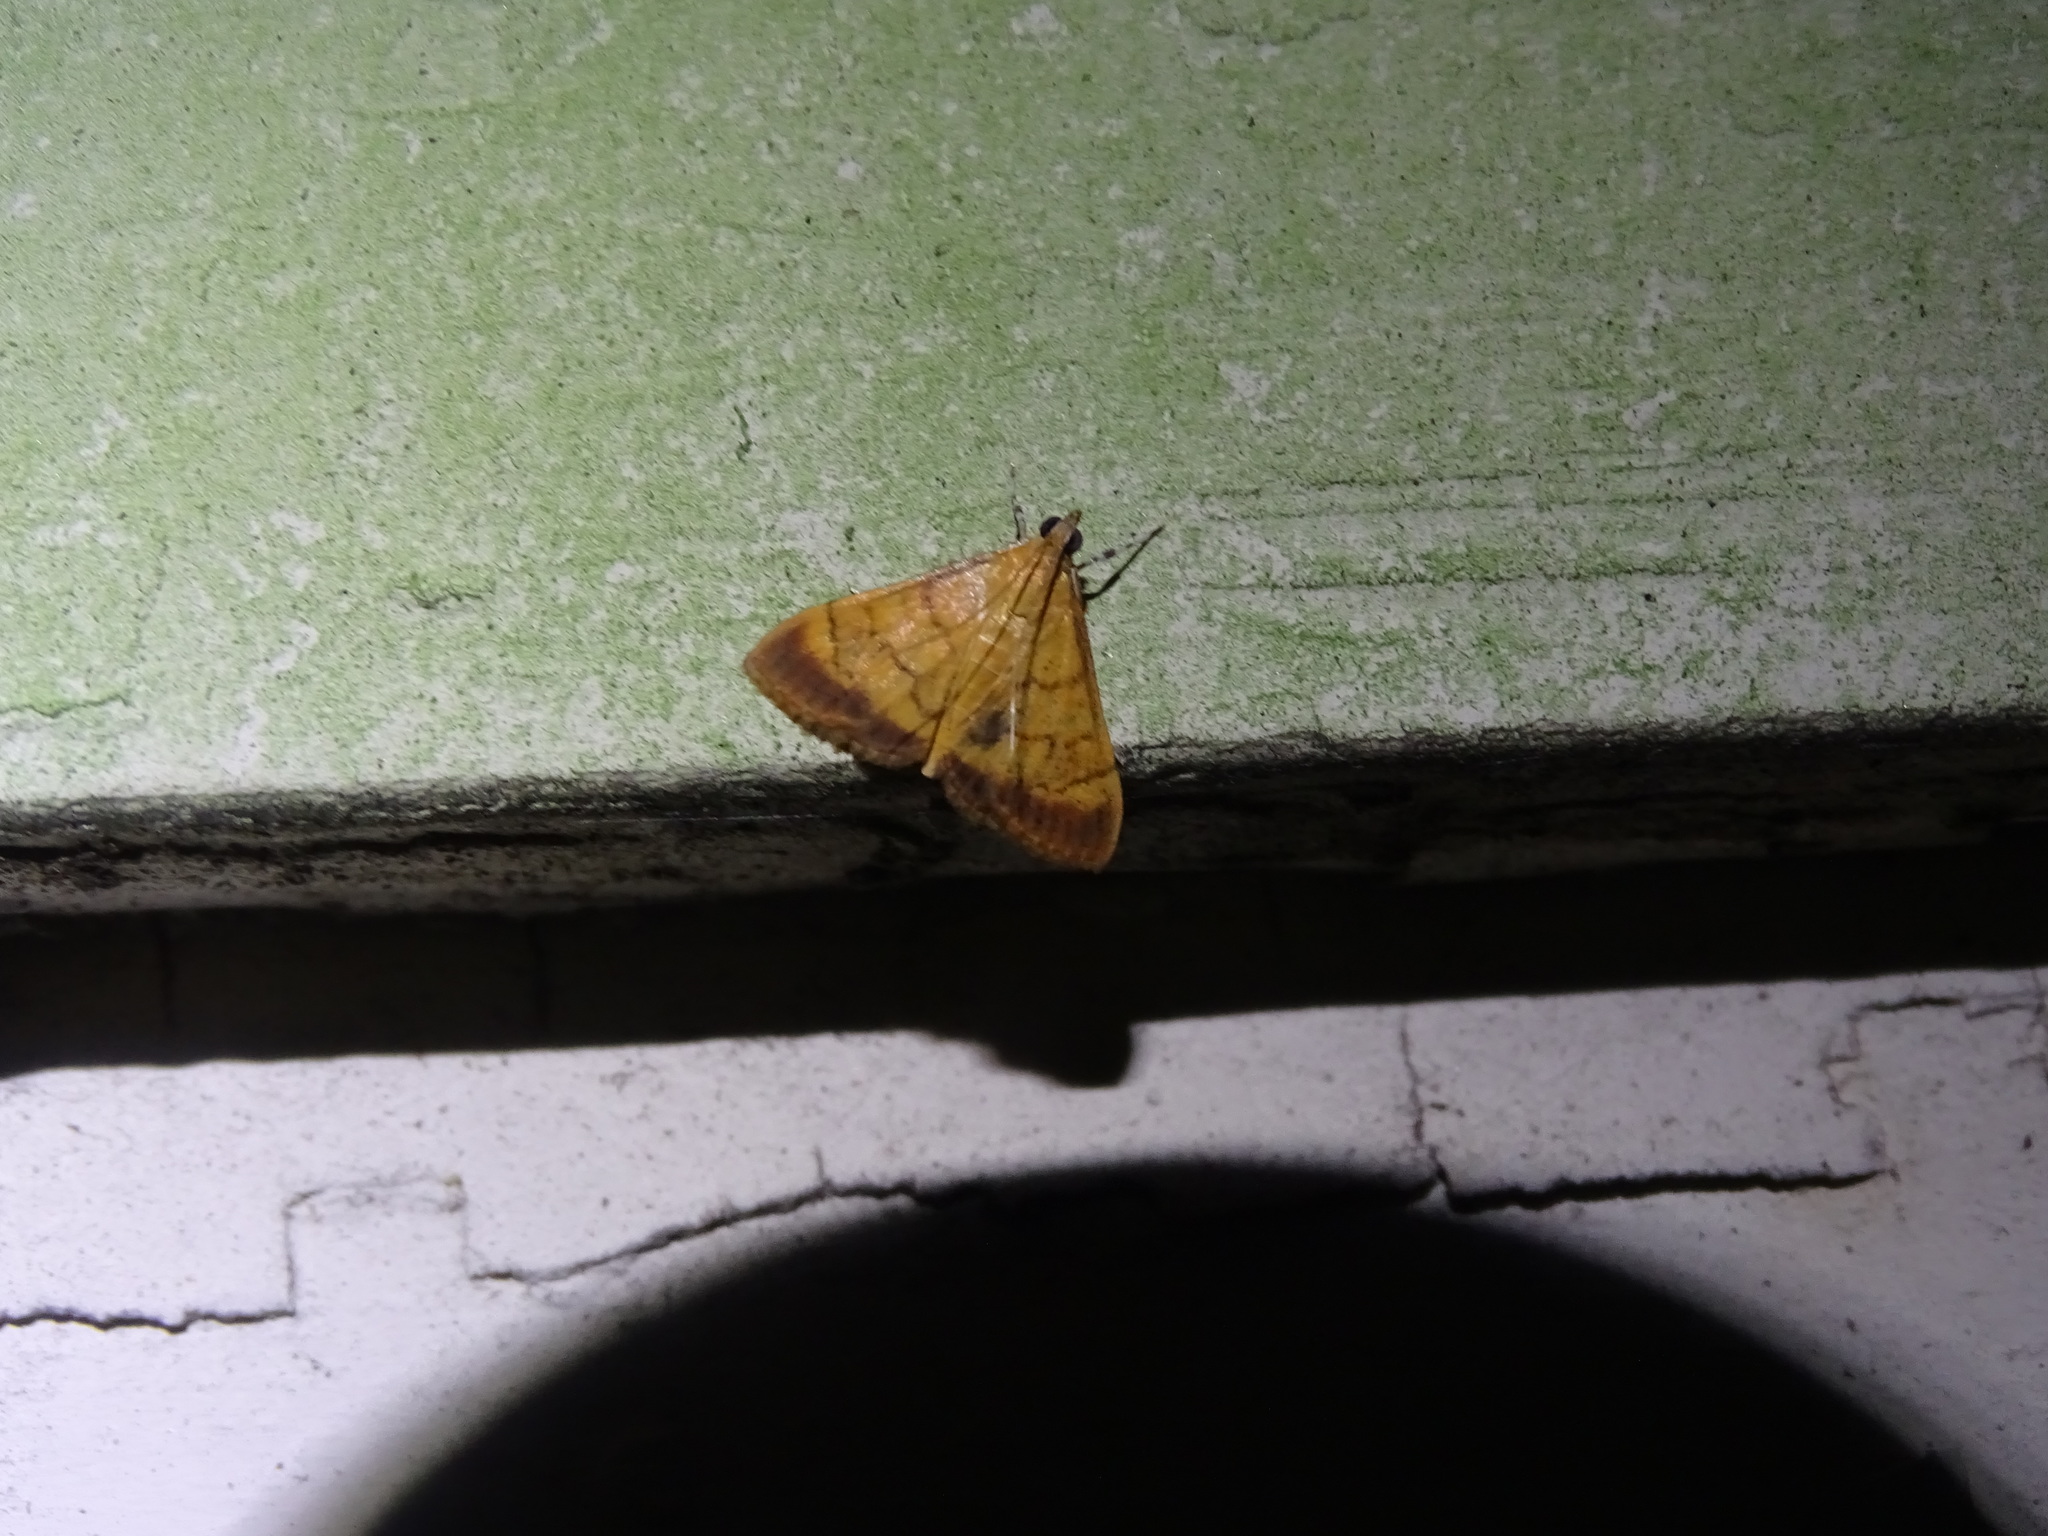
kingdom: Animalia
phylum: Arthropoda
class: Insecta
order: Lepidoptera
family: Crambidae
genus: Pyrausta
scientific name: Pyrausta insignitalis
